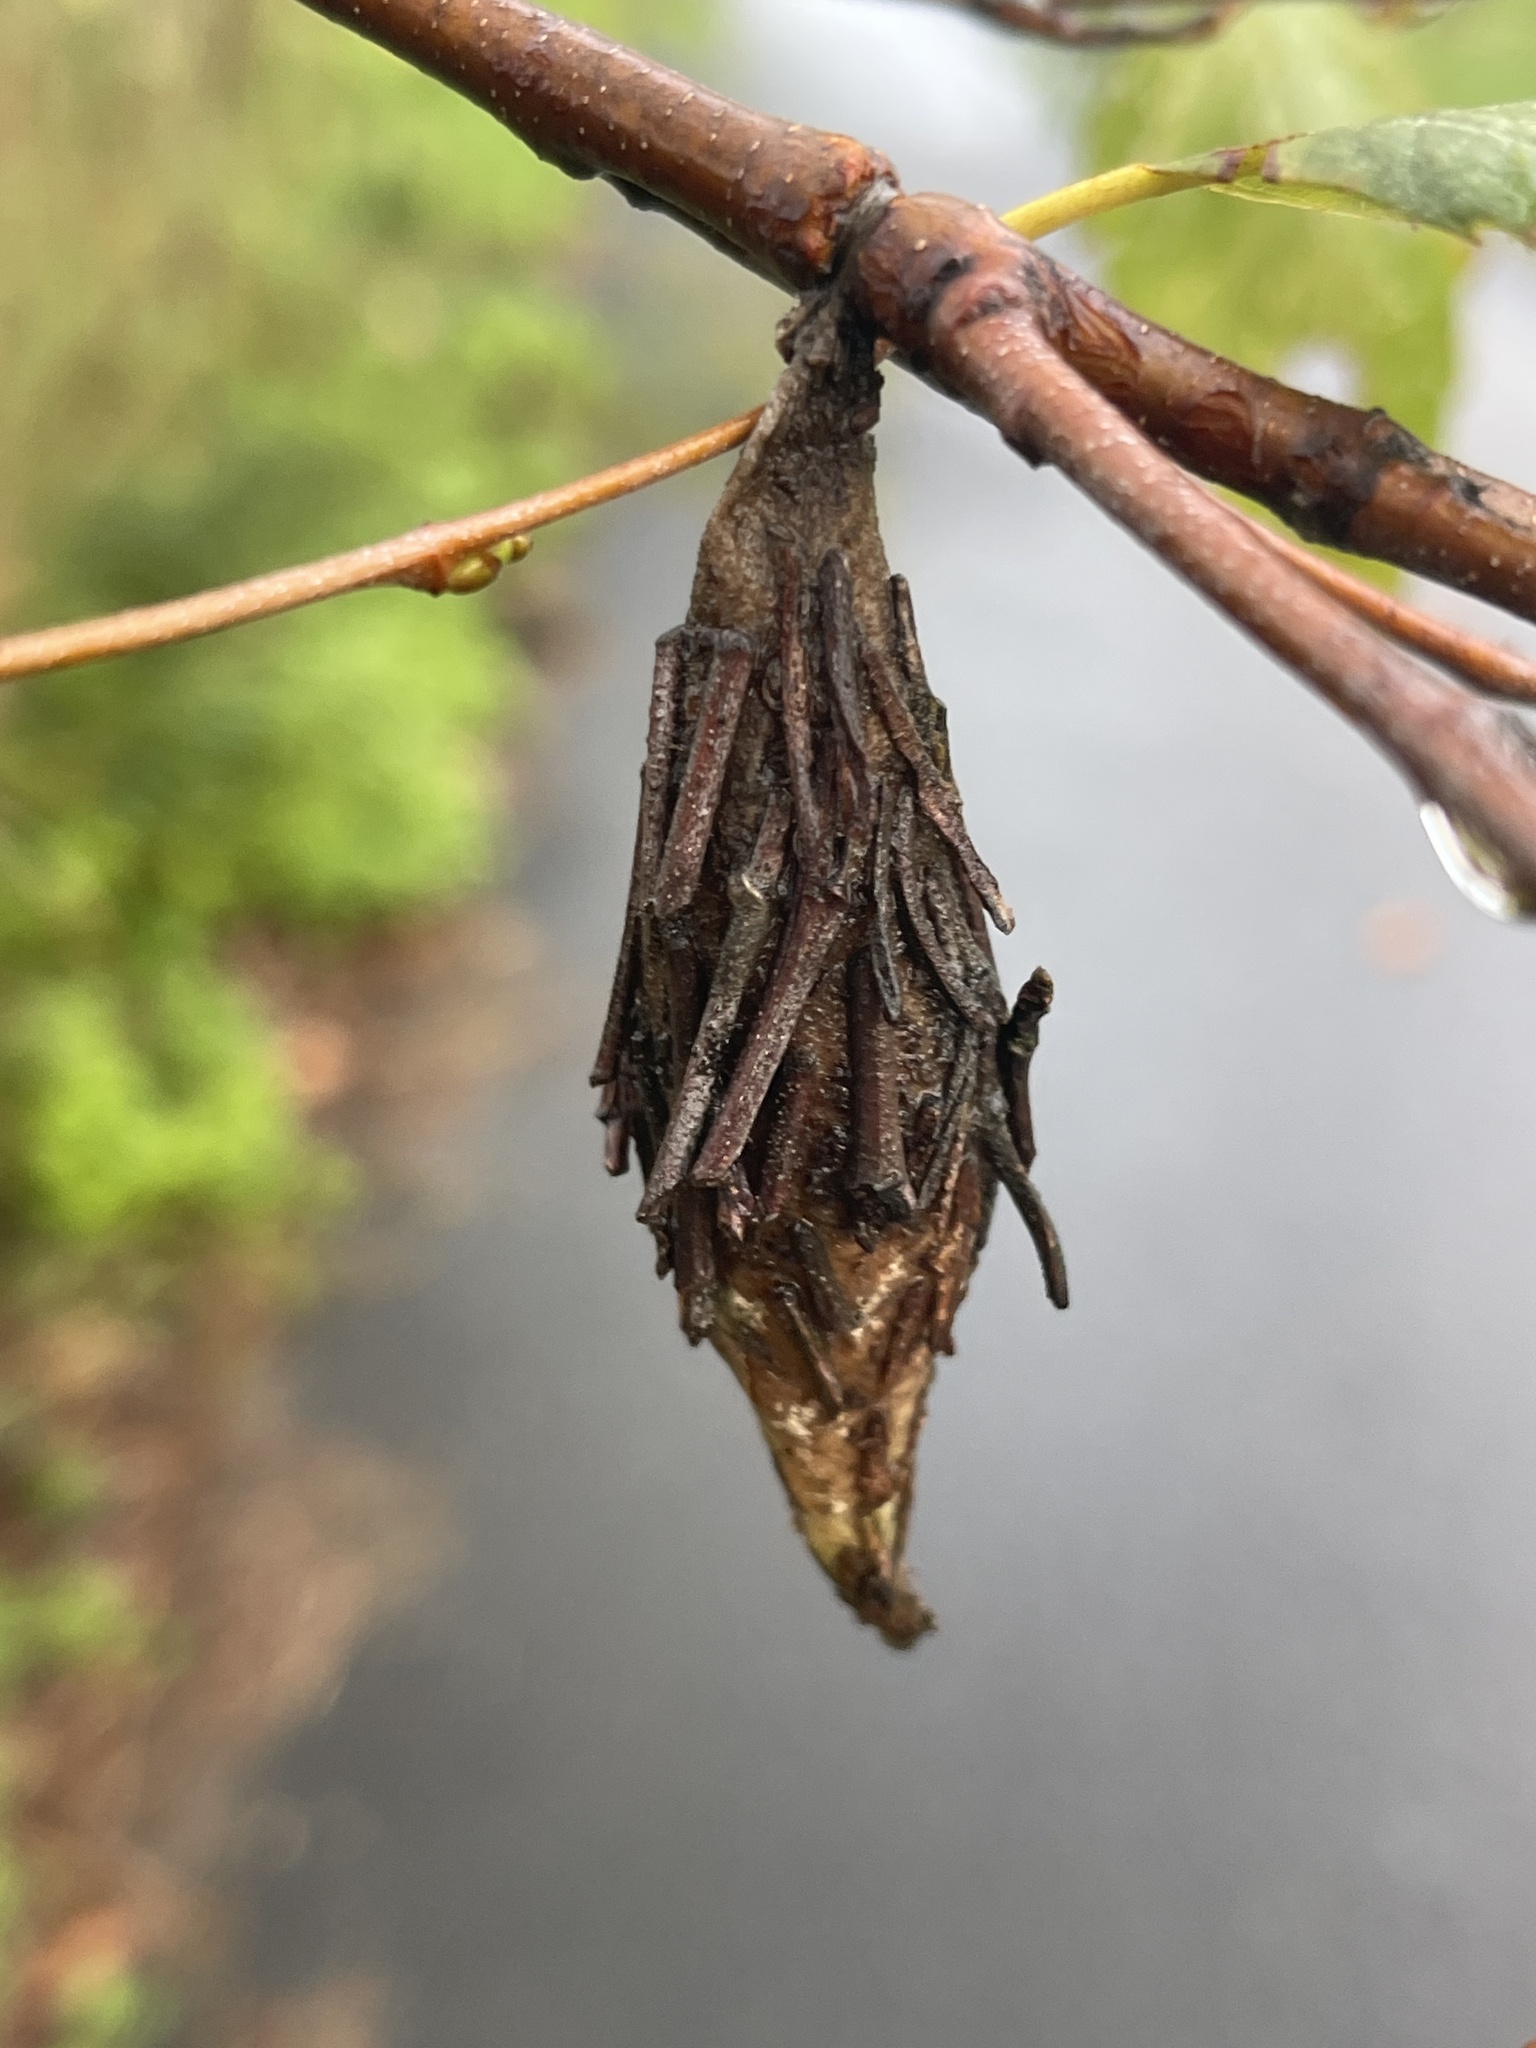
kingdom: Animalia
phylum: Arthropoda
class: Insecta
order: Lepidoptera
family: Psychidae
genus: Thyridopteryx
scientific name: Thyridopteryx ephemeraeformis
